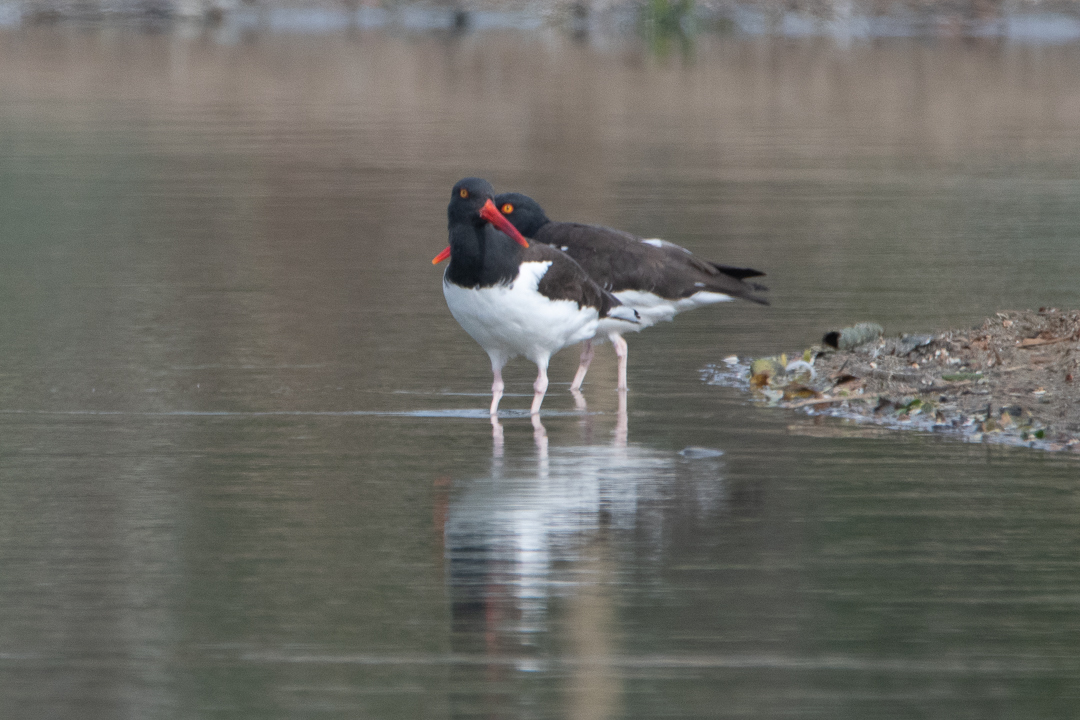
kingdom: Animalia
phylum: Chordata
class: Aves
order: Charadriiformes
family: Haematopodidae
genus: Haematopus
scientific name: Haematopus palliatus
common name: American oystercatcher
